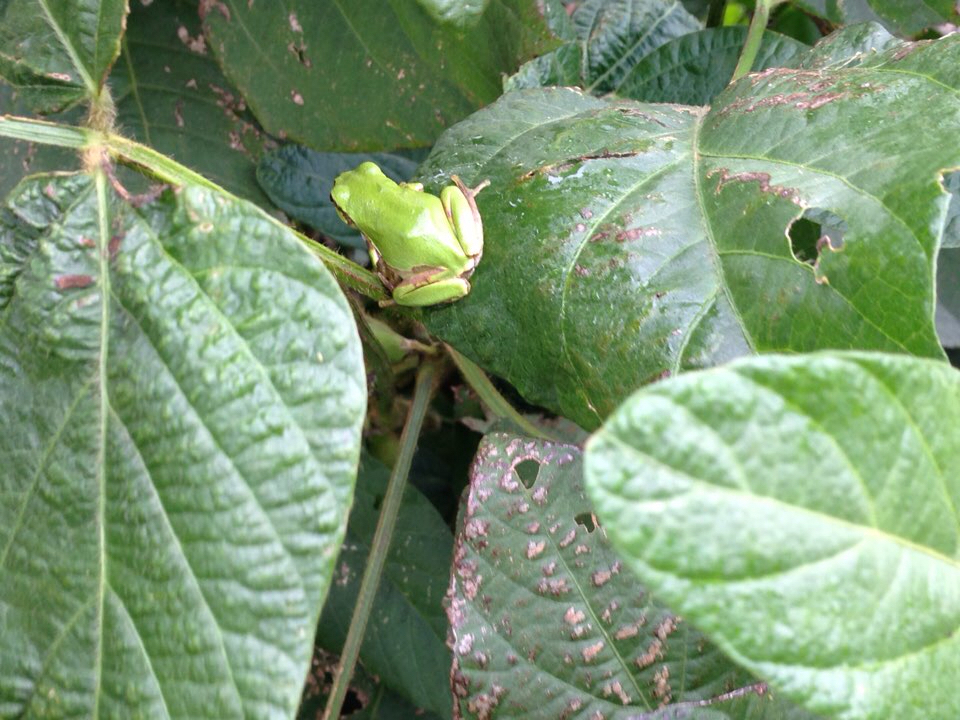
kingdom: Animalia
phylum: Chordata
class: Amphibia
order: Anura
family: Hylidae
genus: Dryophytes
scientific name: Dryophytes japonicus
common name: Japanese treefrog
